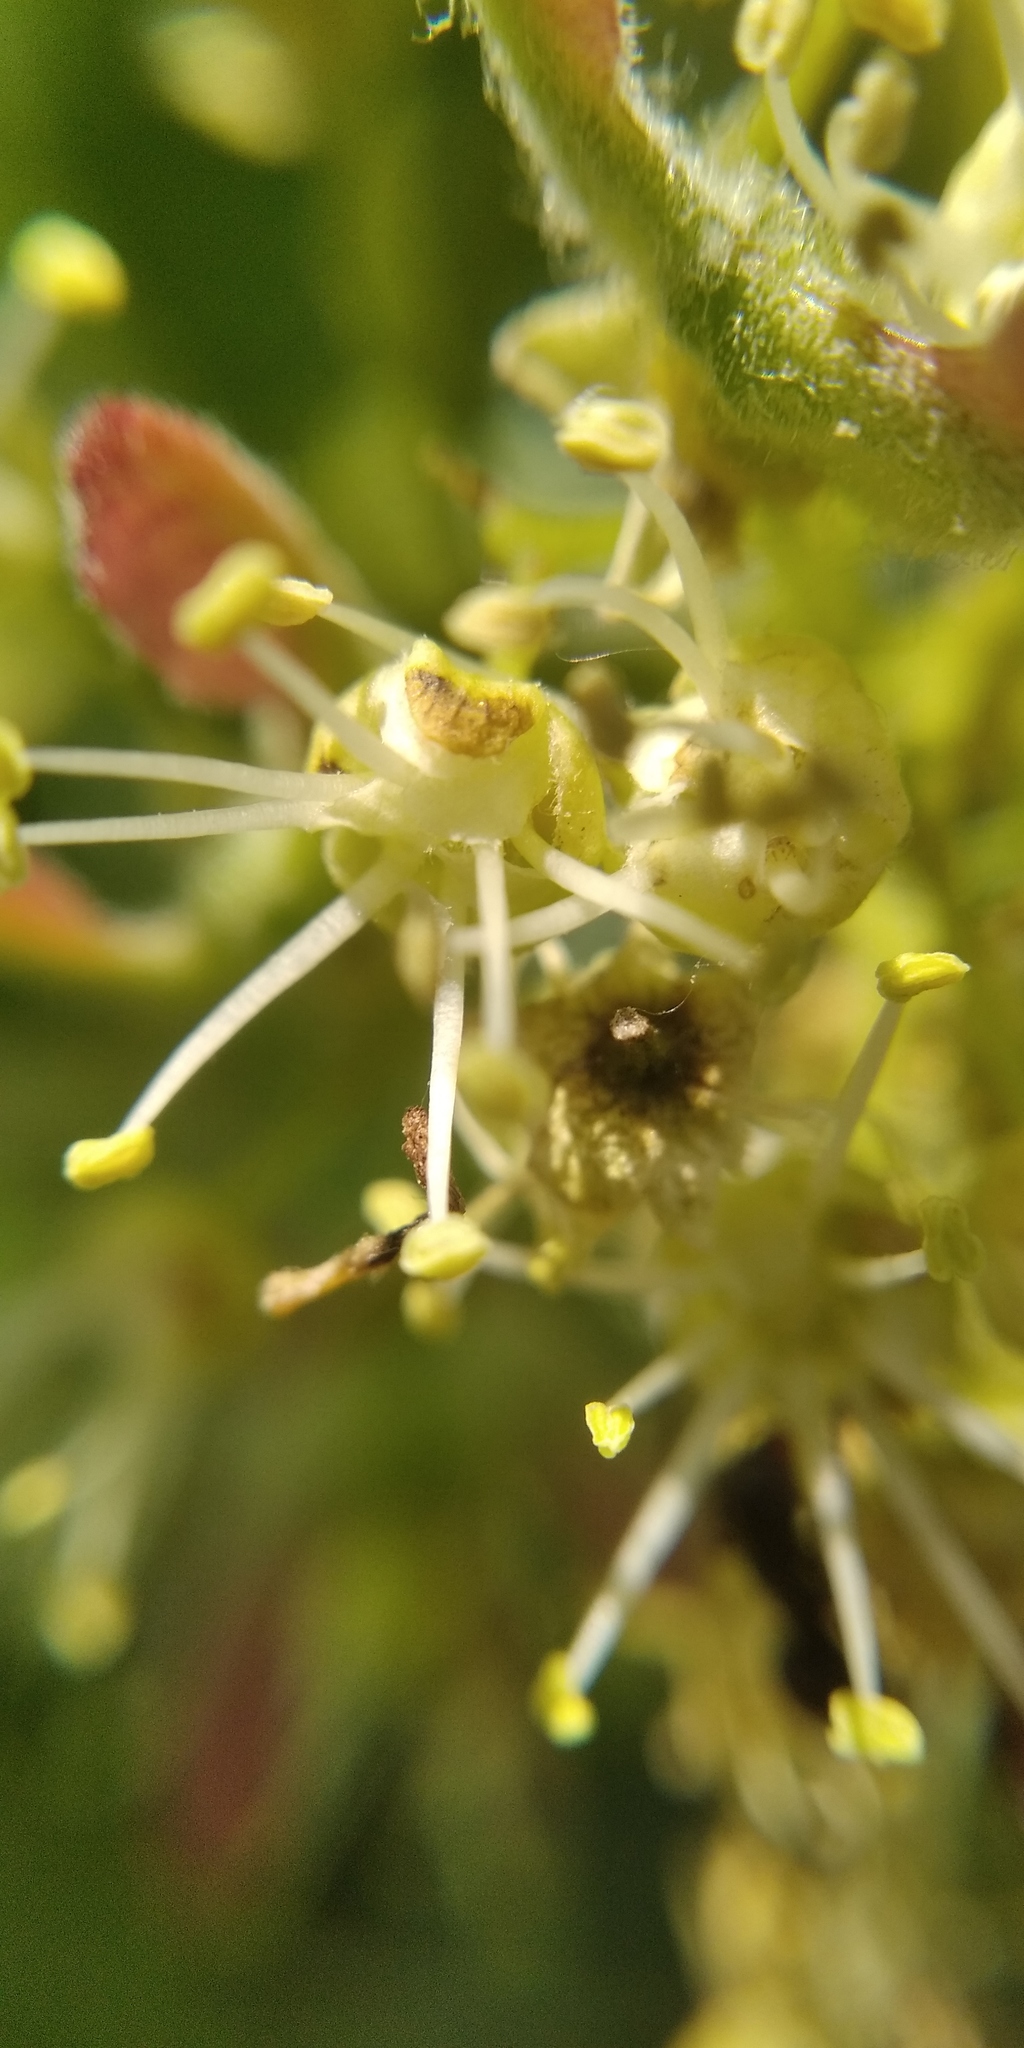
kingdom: Plantae
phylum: Tracheophyta
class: Magnoliopsida
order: Sapindales
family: Sapindaceae
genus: Acer
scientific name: Acer tataricum
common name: Tartar maple
